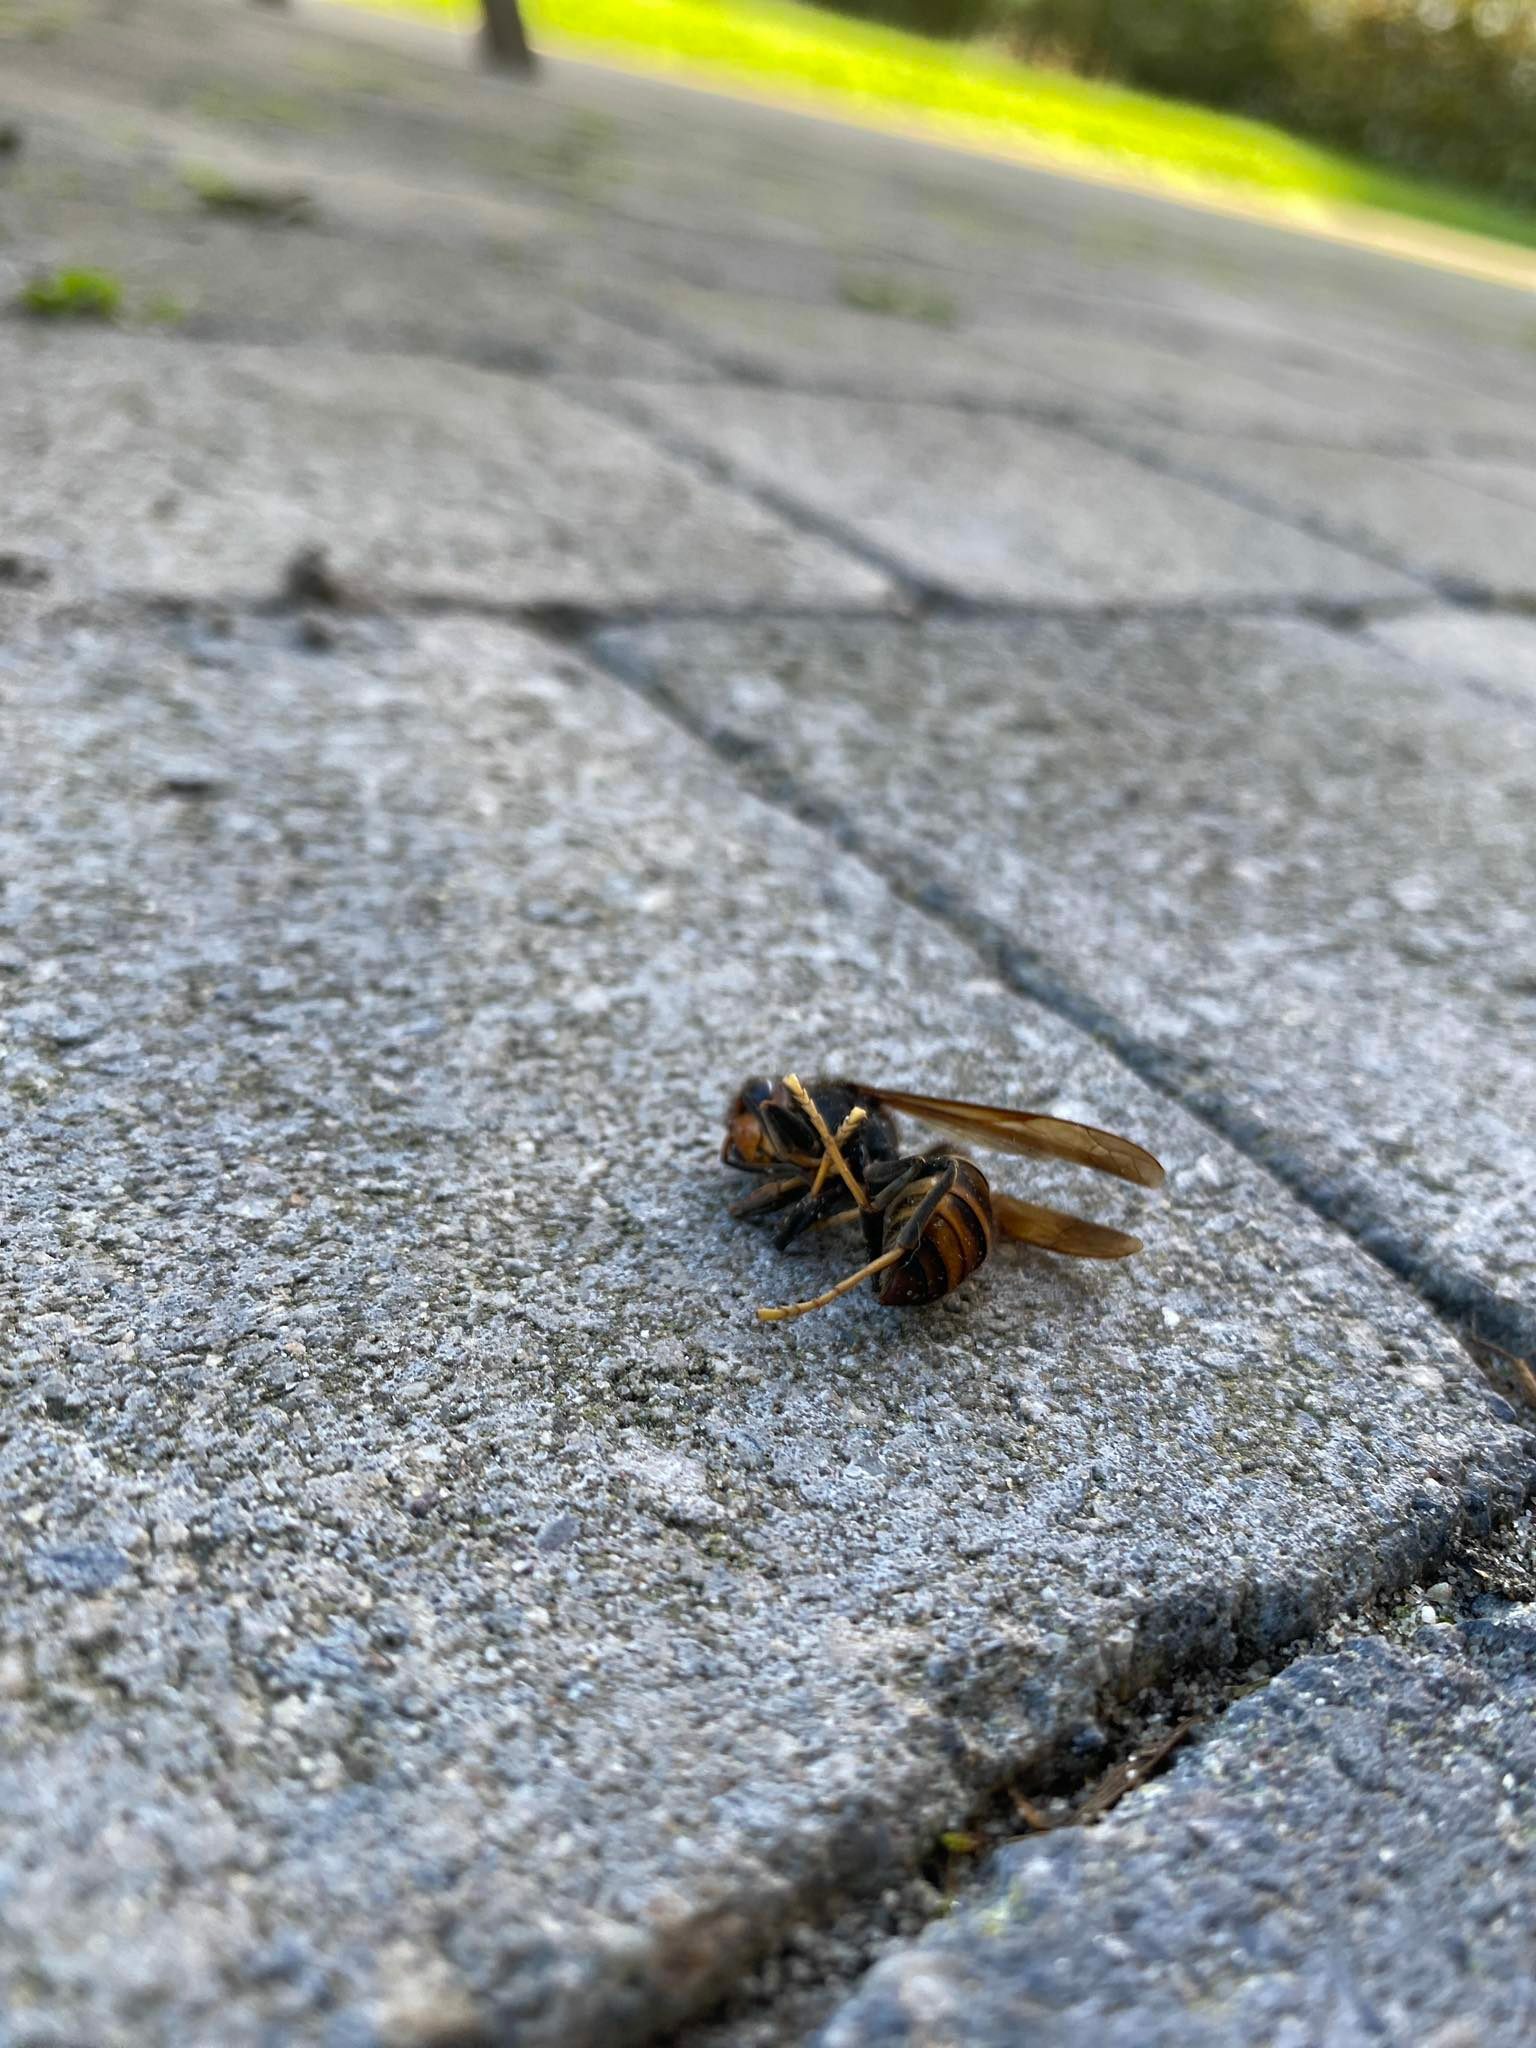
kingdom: Animalia
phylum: Arthropoda
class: Insecta
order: Hymenoptera
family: Vespidae
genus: Vespa
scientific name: Vespa velutina
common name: Asian hornet
